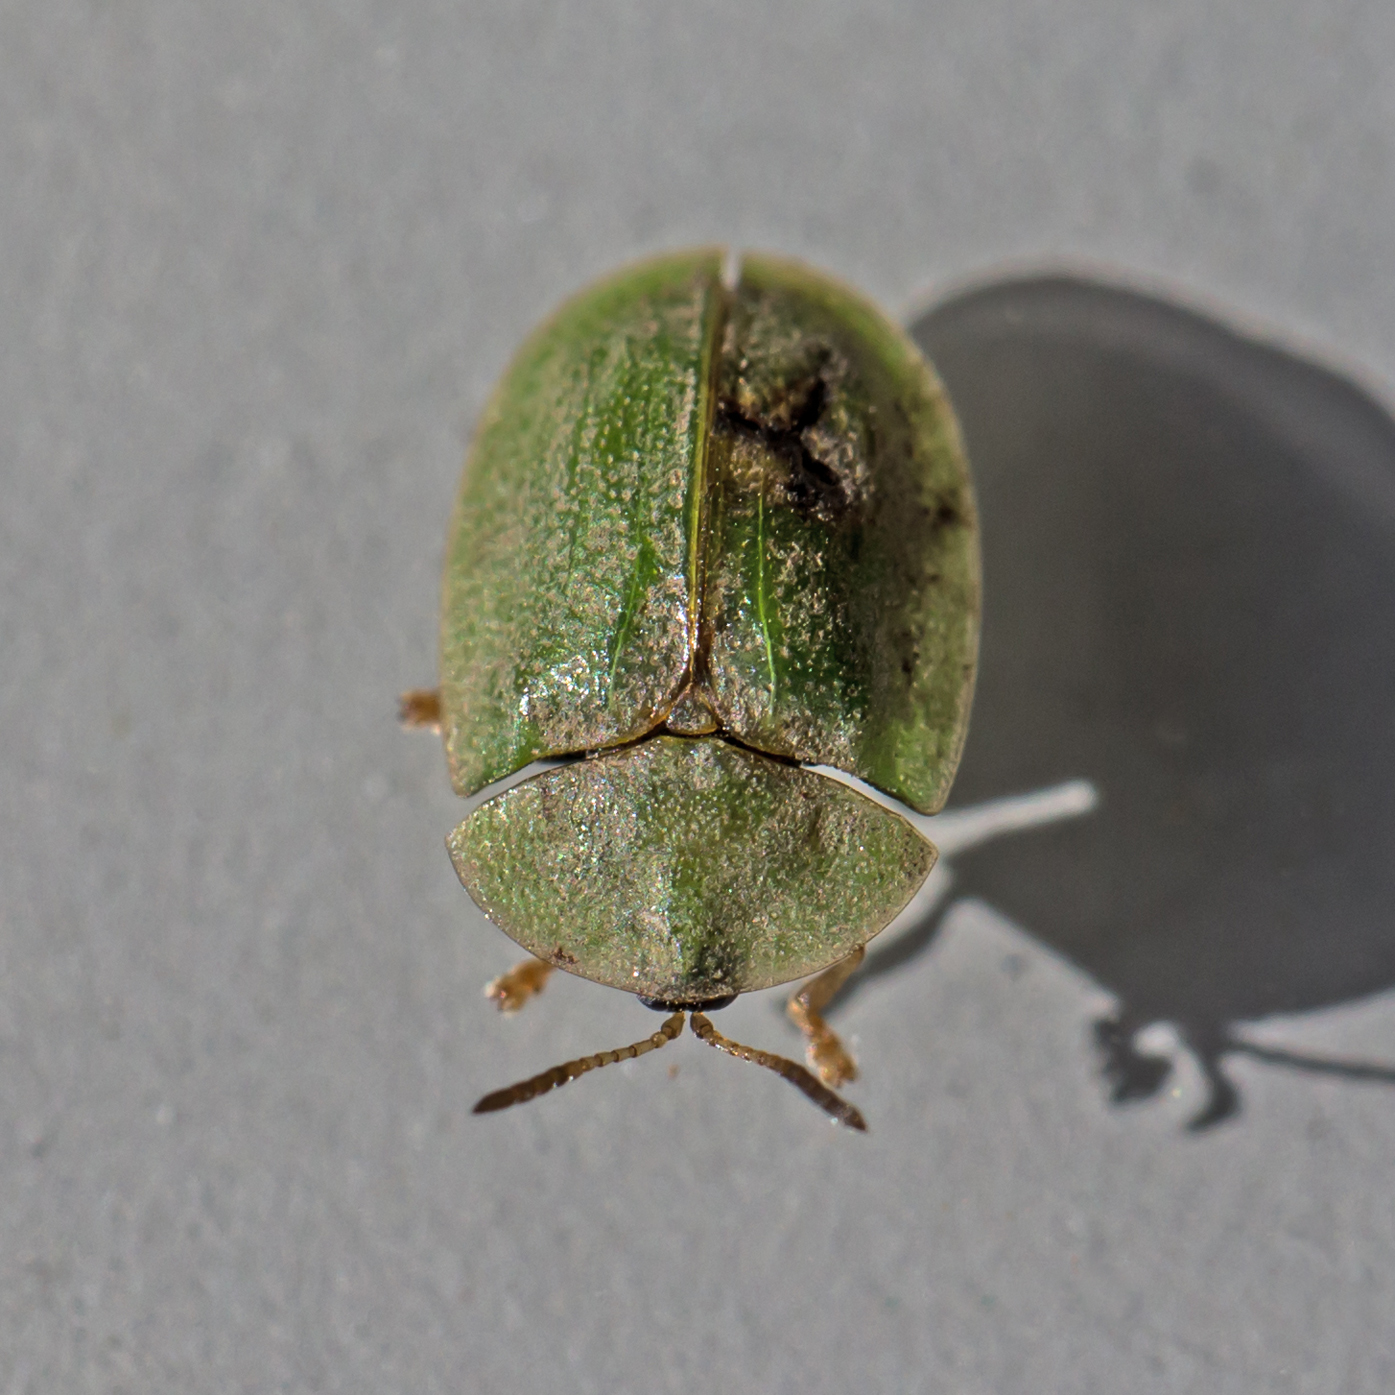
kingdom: Animalia
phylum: Arthropoda
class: Insecta
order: Coleoptera
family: Chrysomelidae
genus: Cassida
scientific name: Cassida rubiginosa
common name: Thistle tortoise beetle
